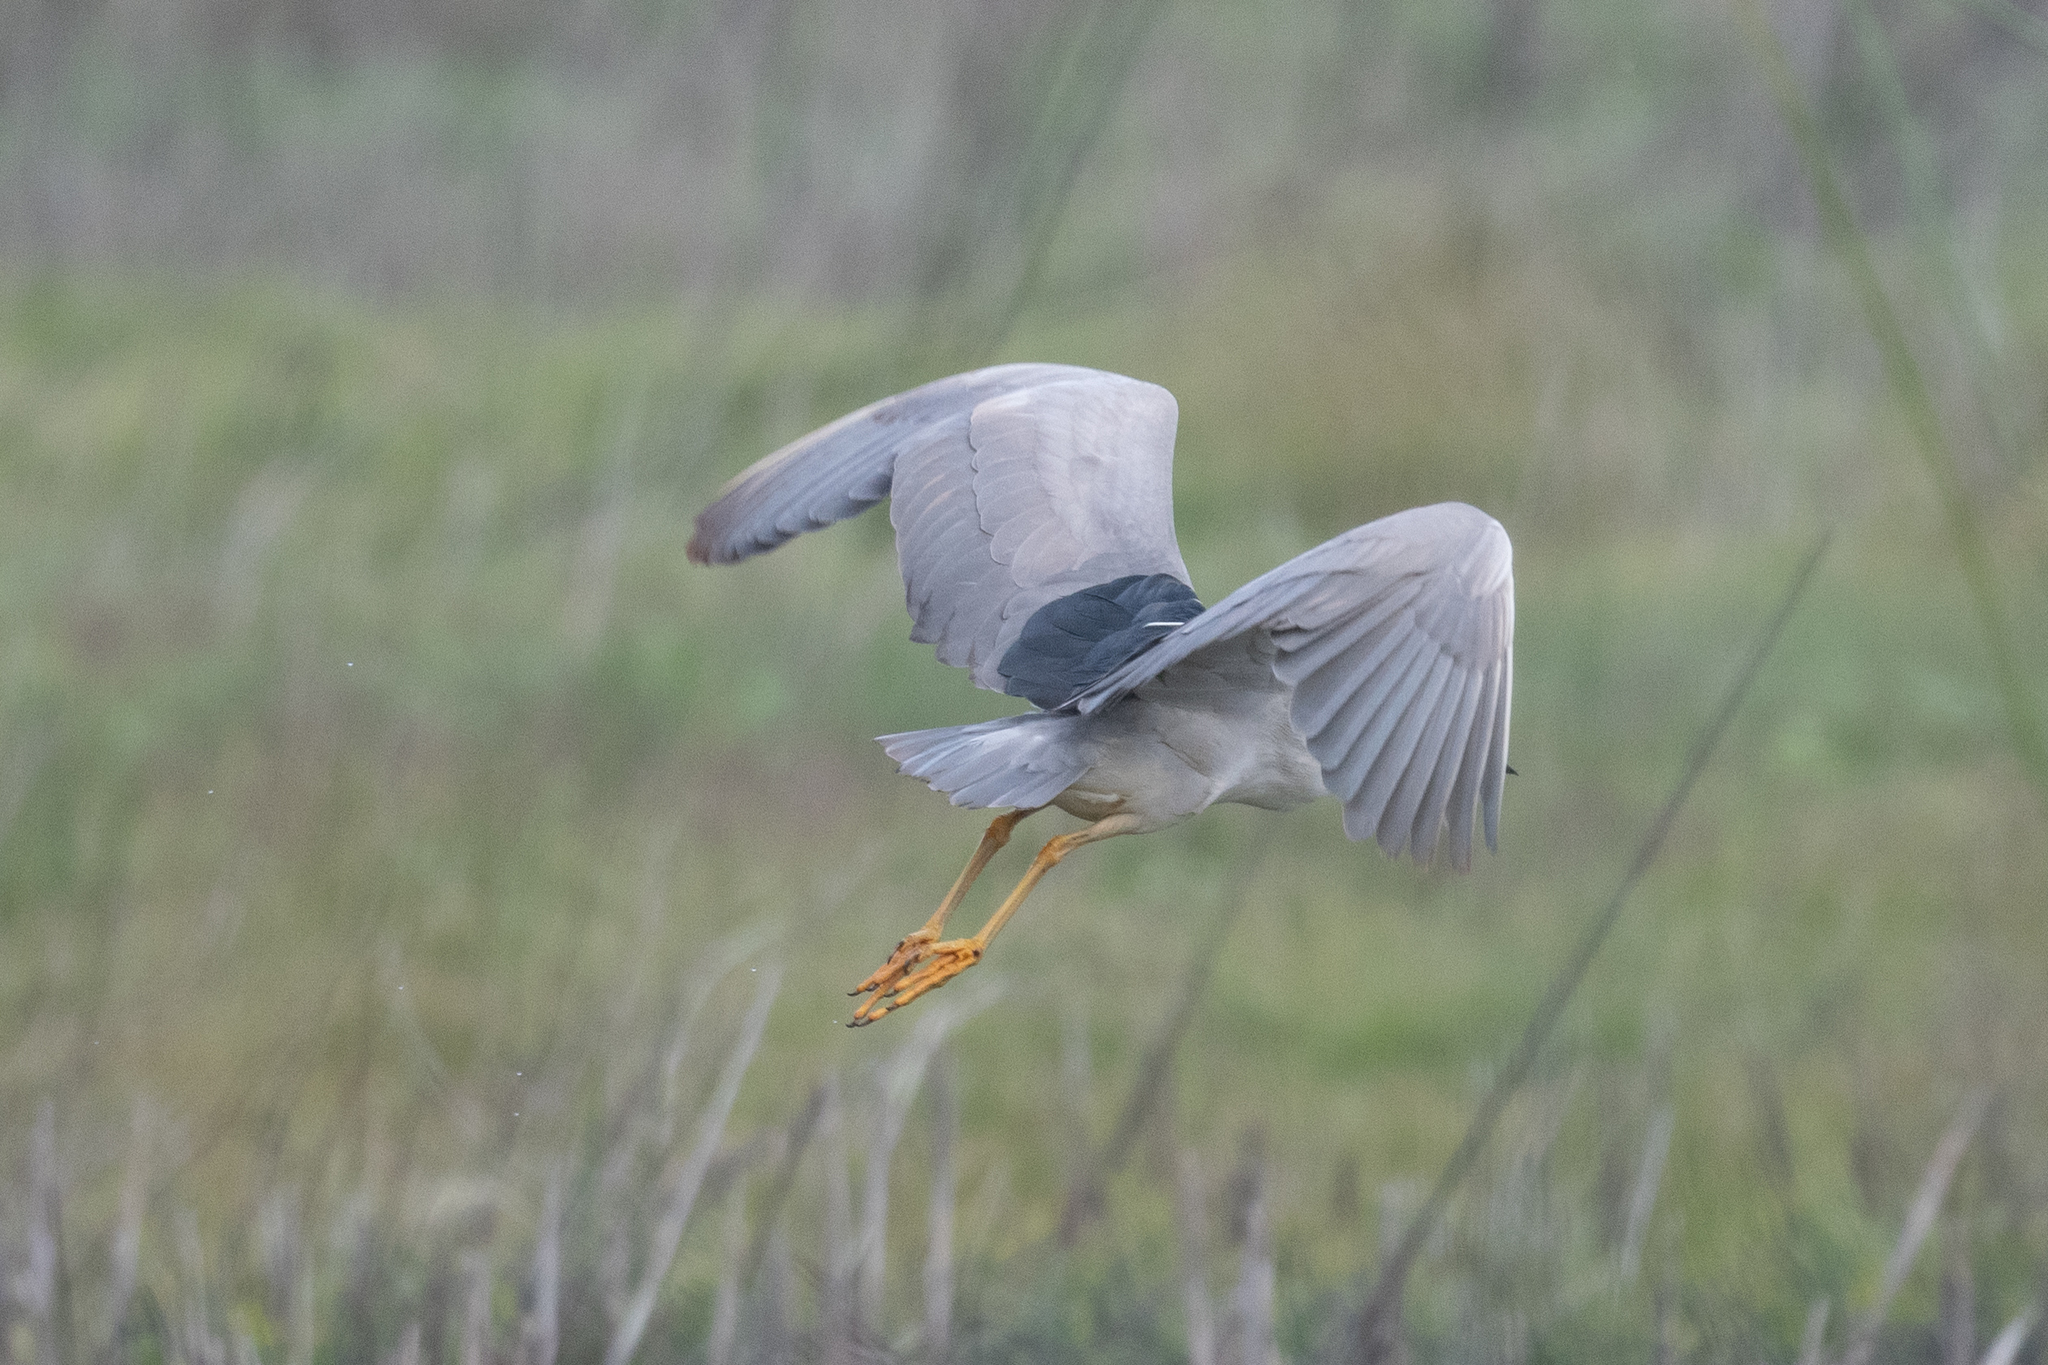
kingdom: Animalia
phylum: Chordata
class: Aves
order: Pelecaniformes
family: Ardeidae
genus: Nycticorax
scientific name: Nycticorax nycticorax
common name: Black-crowned night heron
